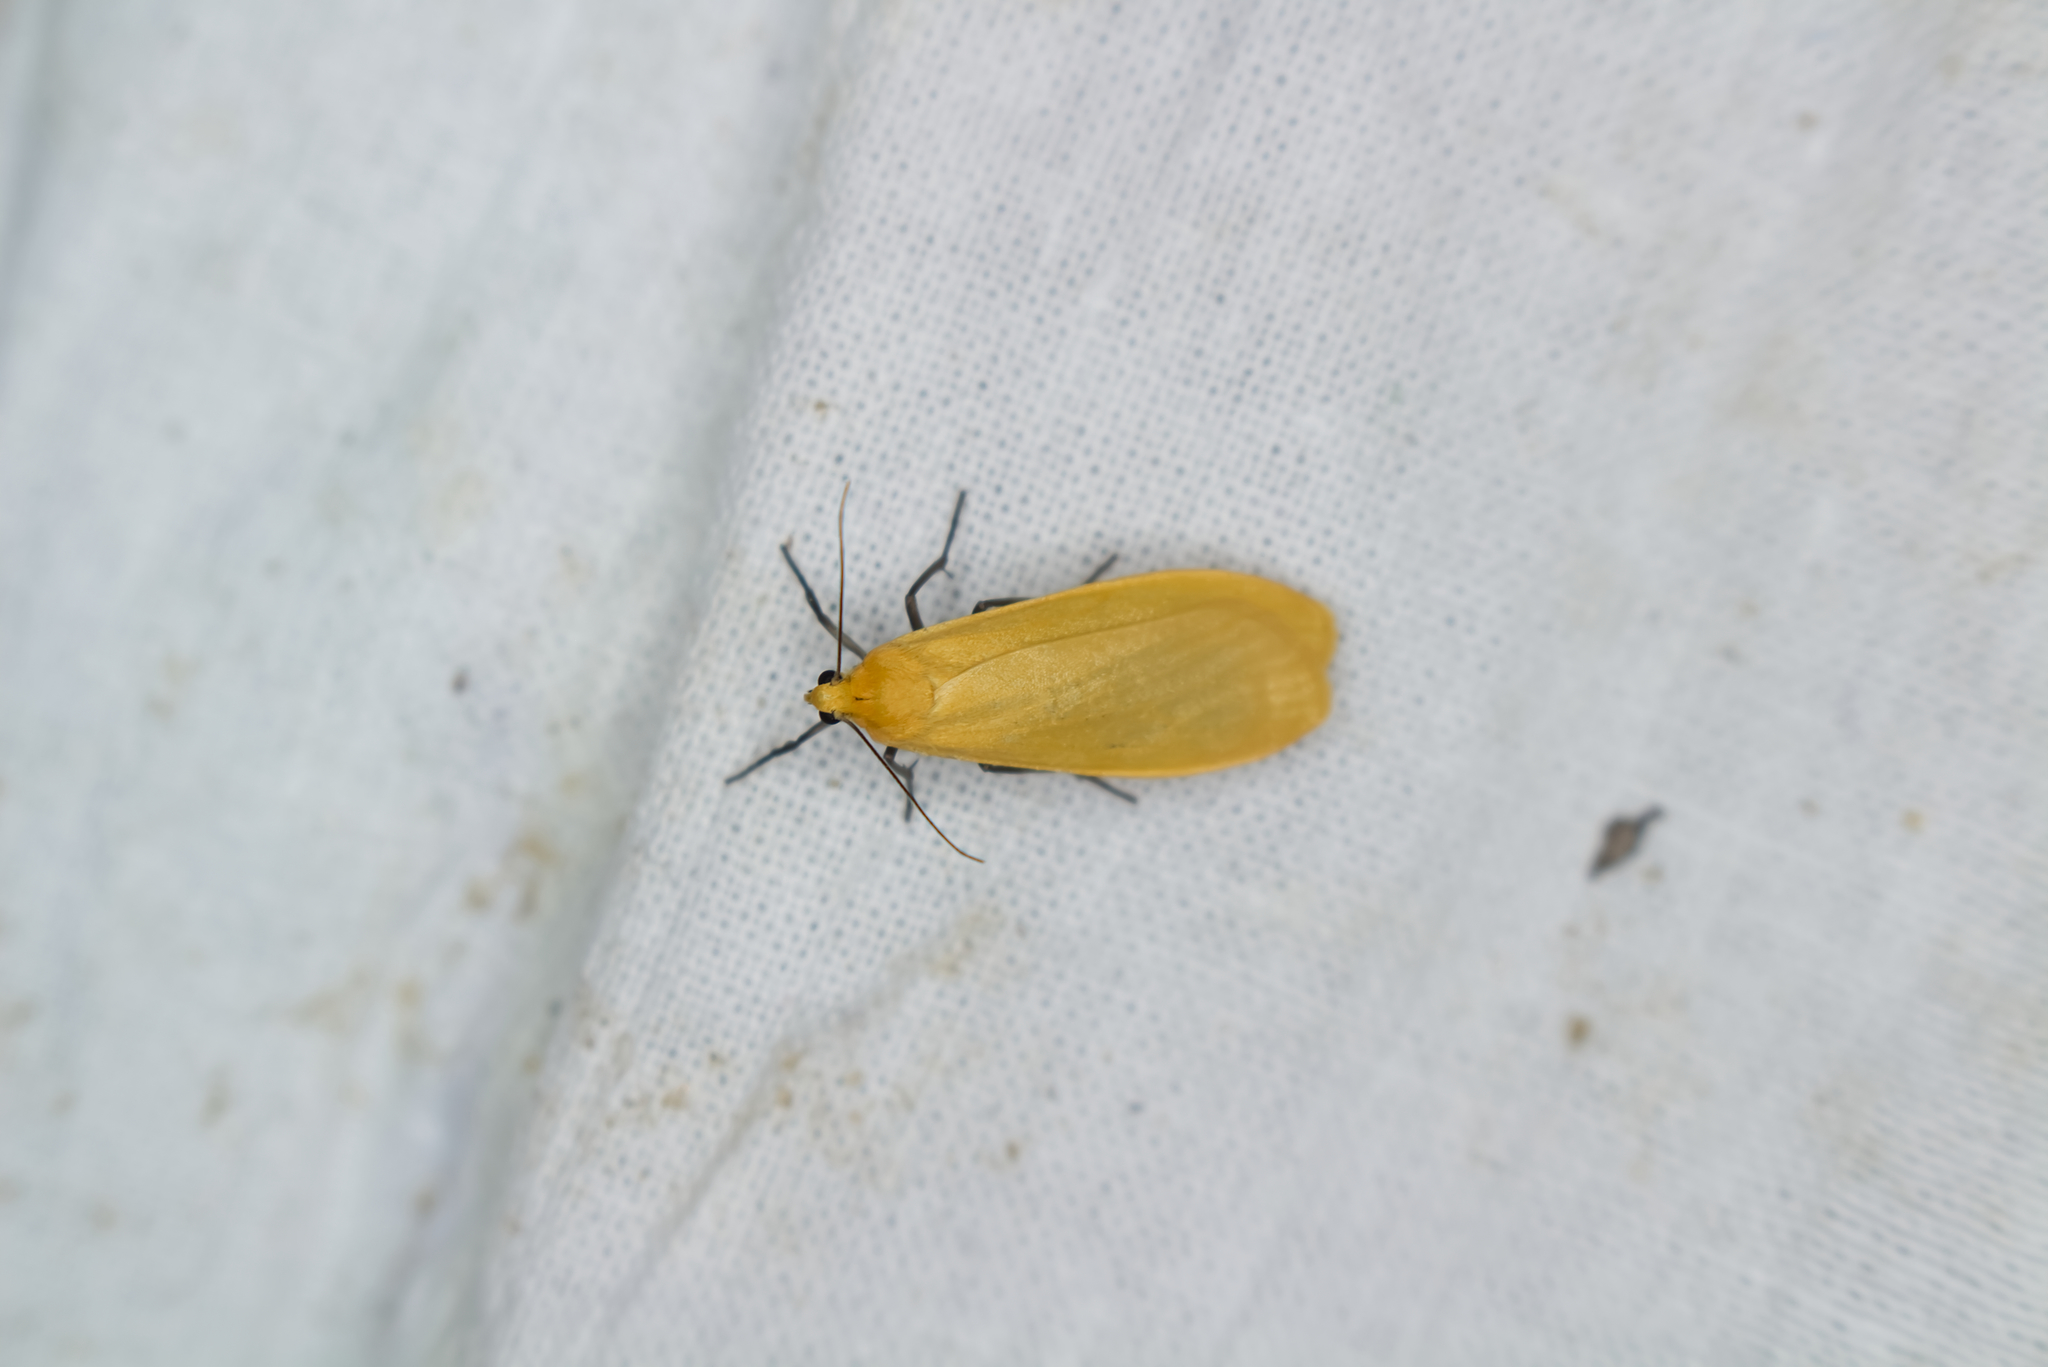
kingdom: Animalia
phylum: Arthropoda
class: Insecta
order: Lepidoptera
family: Erebidae
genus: Wittia
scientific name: Wittia sororcula
